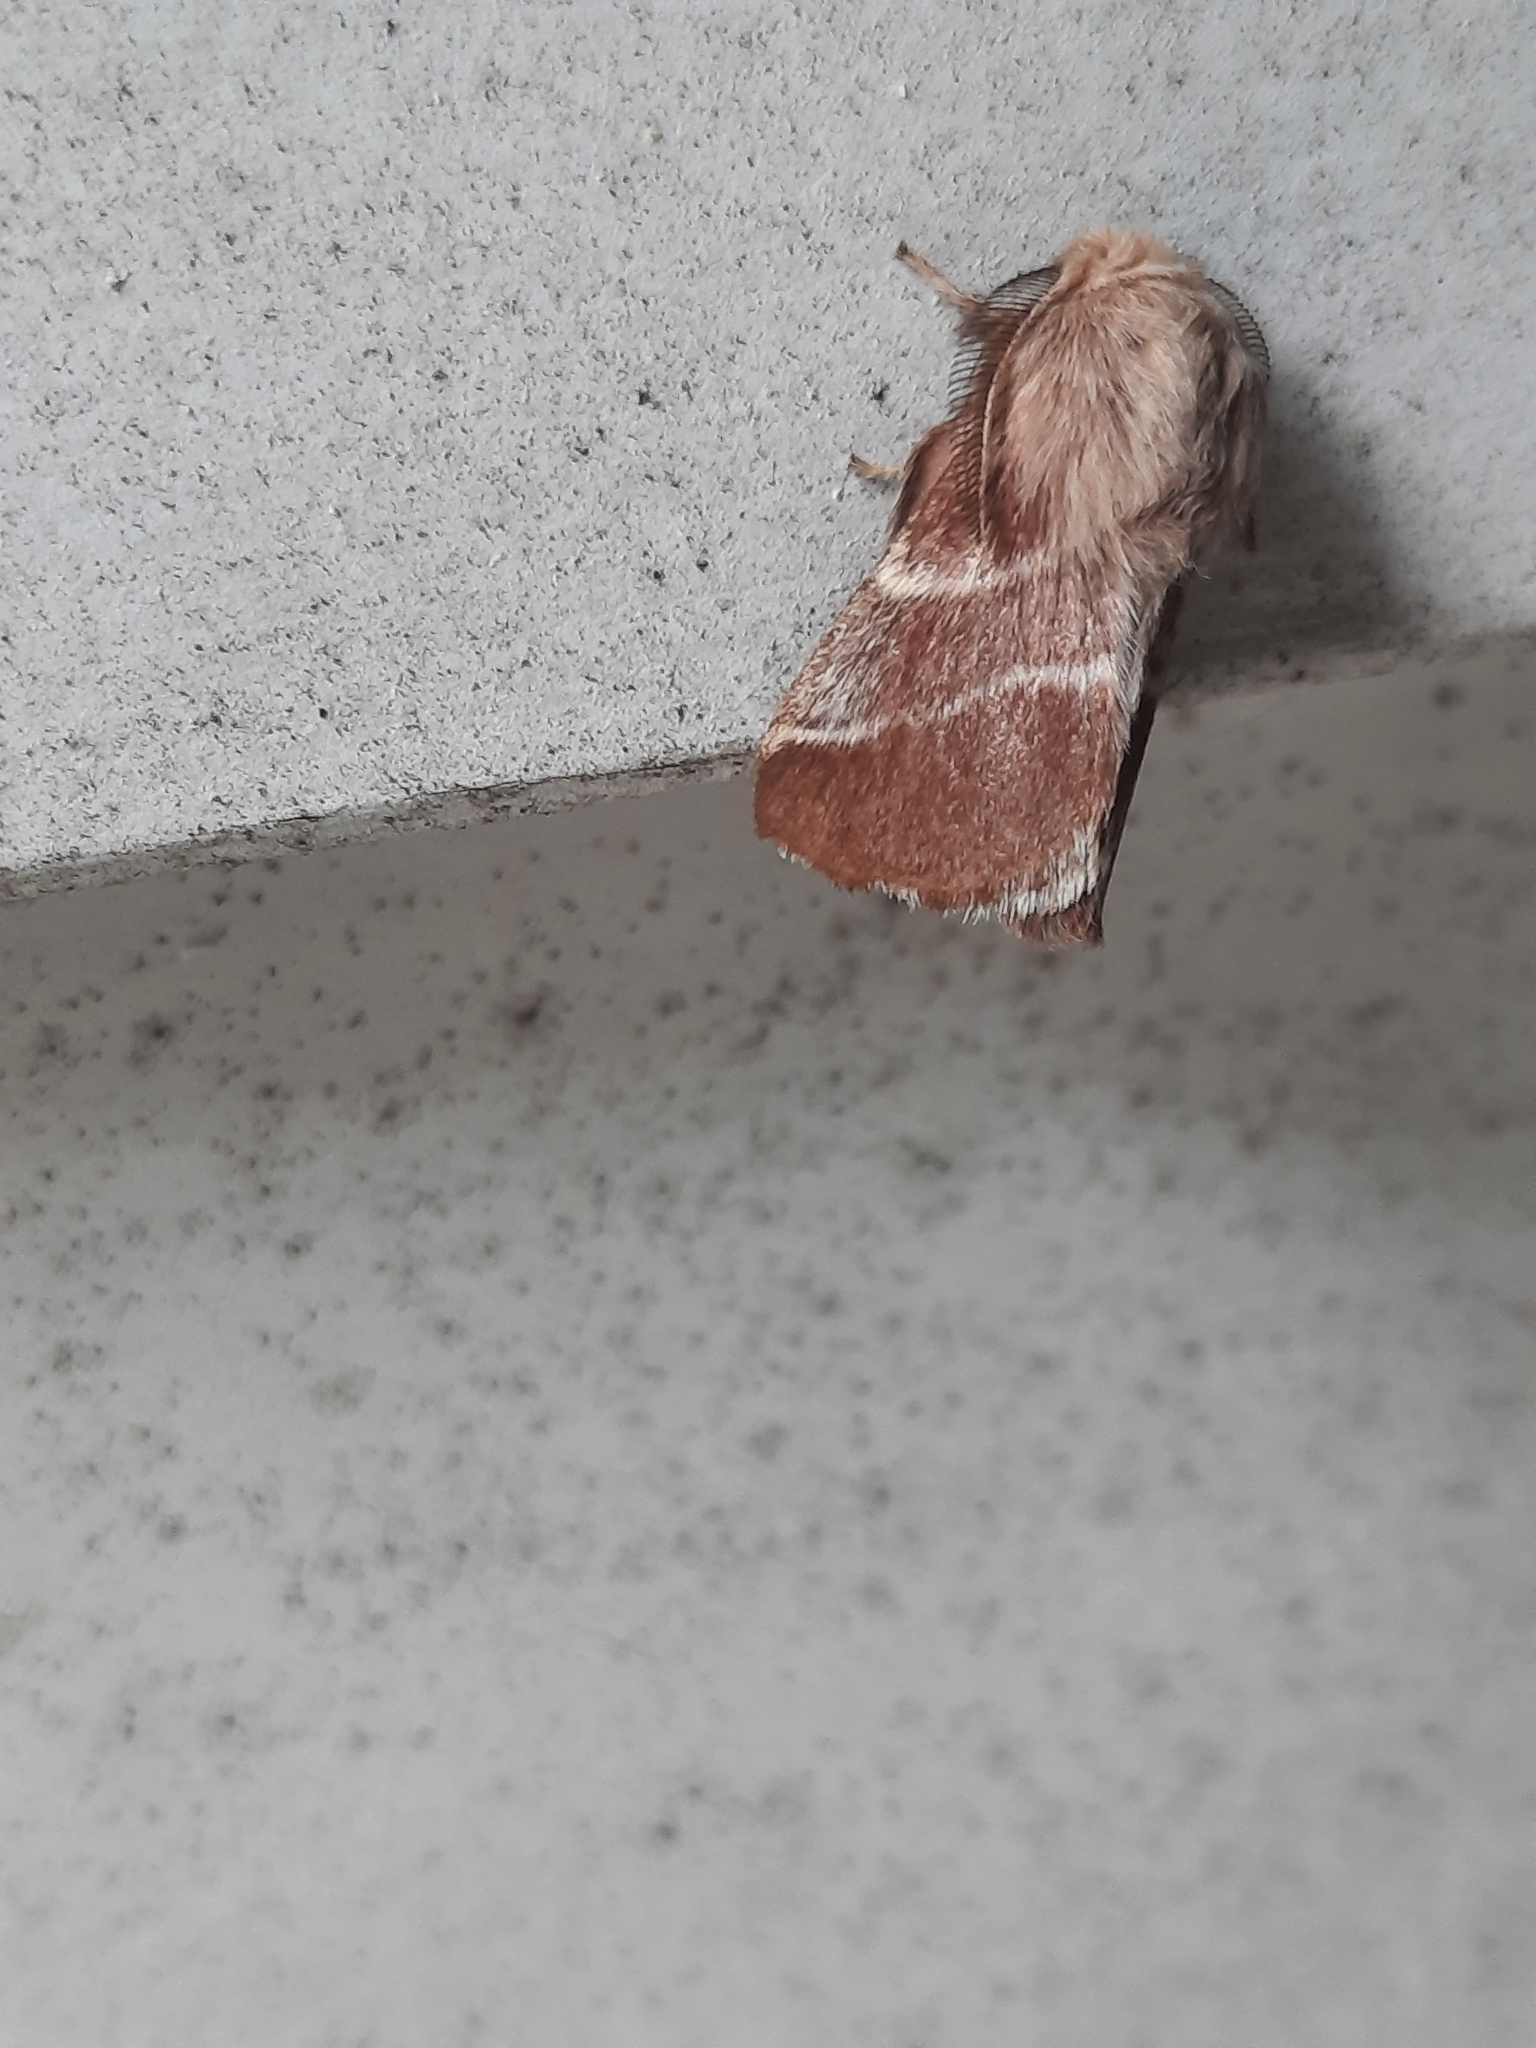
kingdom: Animalia
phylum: Arthropoda
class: Insecta
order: Lepidoptera
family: Lasiocampidae
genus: Malacosoma
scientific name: Malacosoma americana
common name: Eastern tent caterpillar moth
